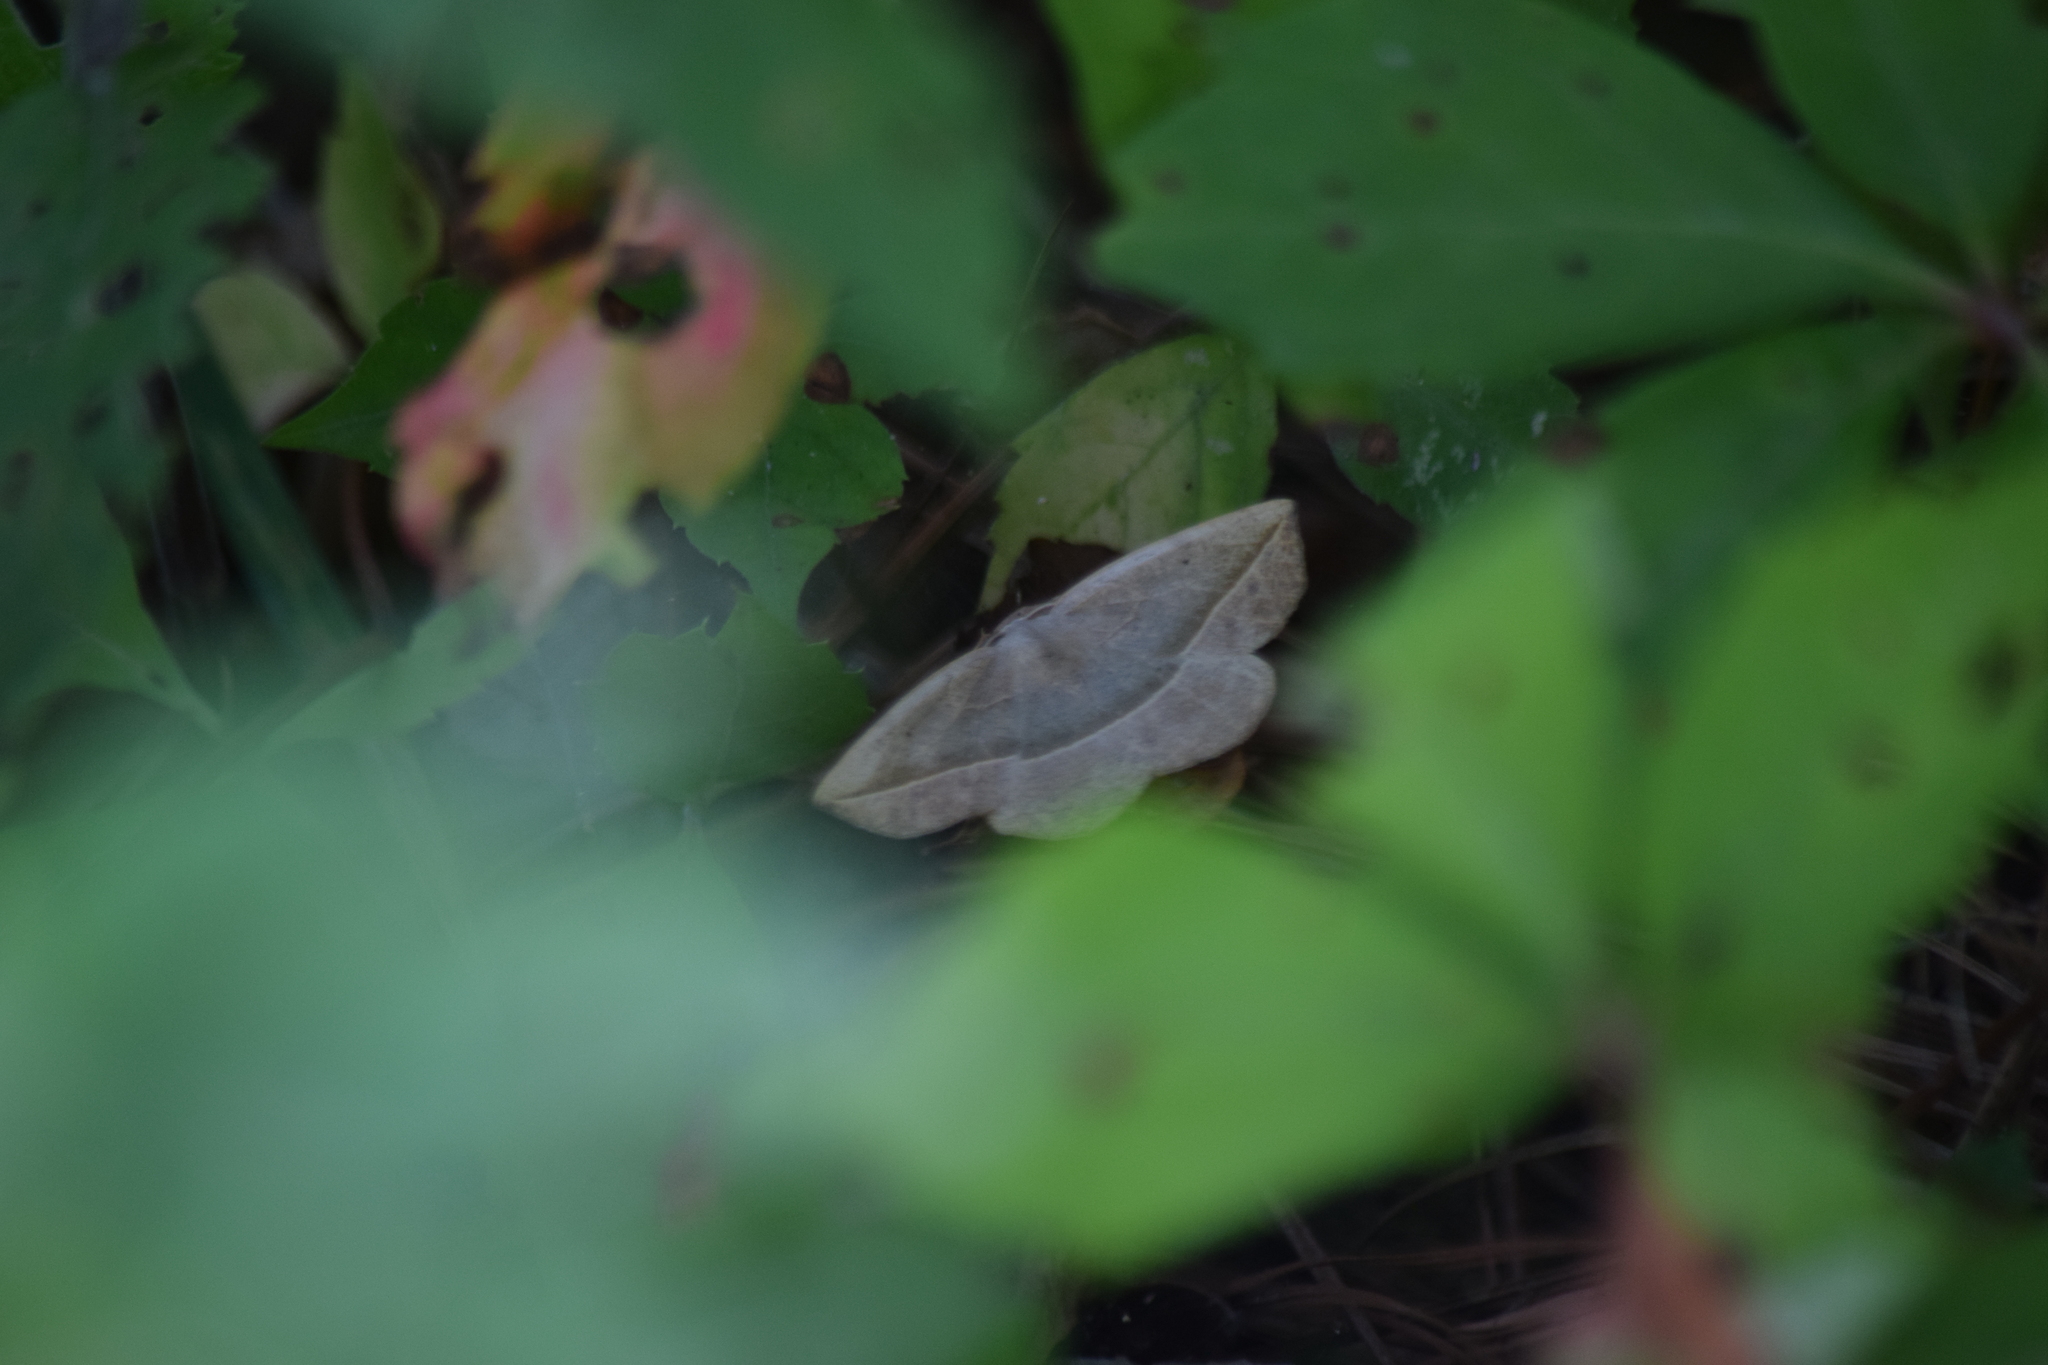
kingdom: Animalia
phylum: Arthropoda
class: Insecta
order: Lepidoptera
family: Geometridae
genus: Eusarca
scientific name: Eusarca confusaria
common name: Confused eusarca
